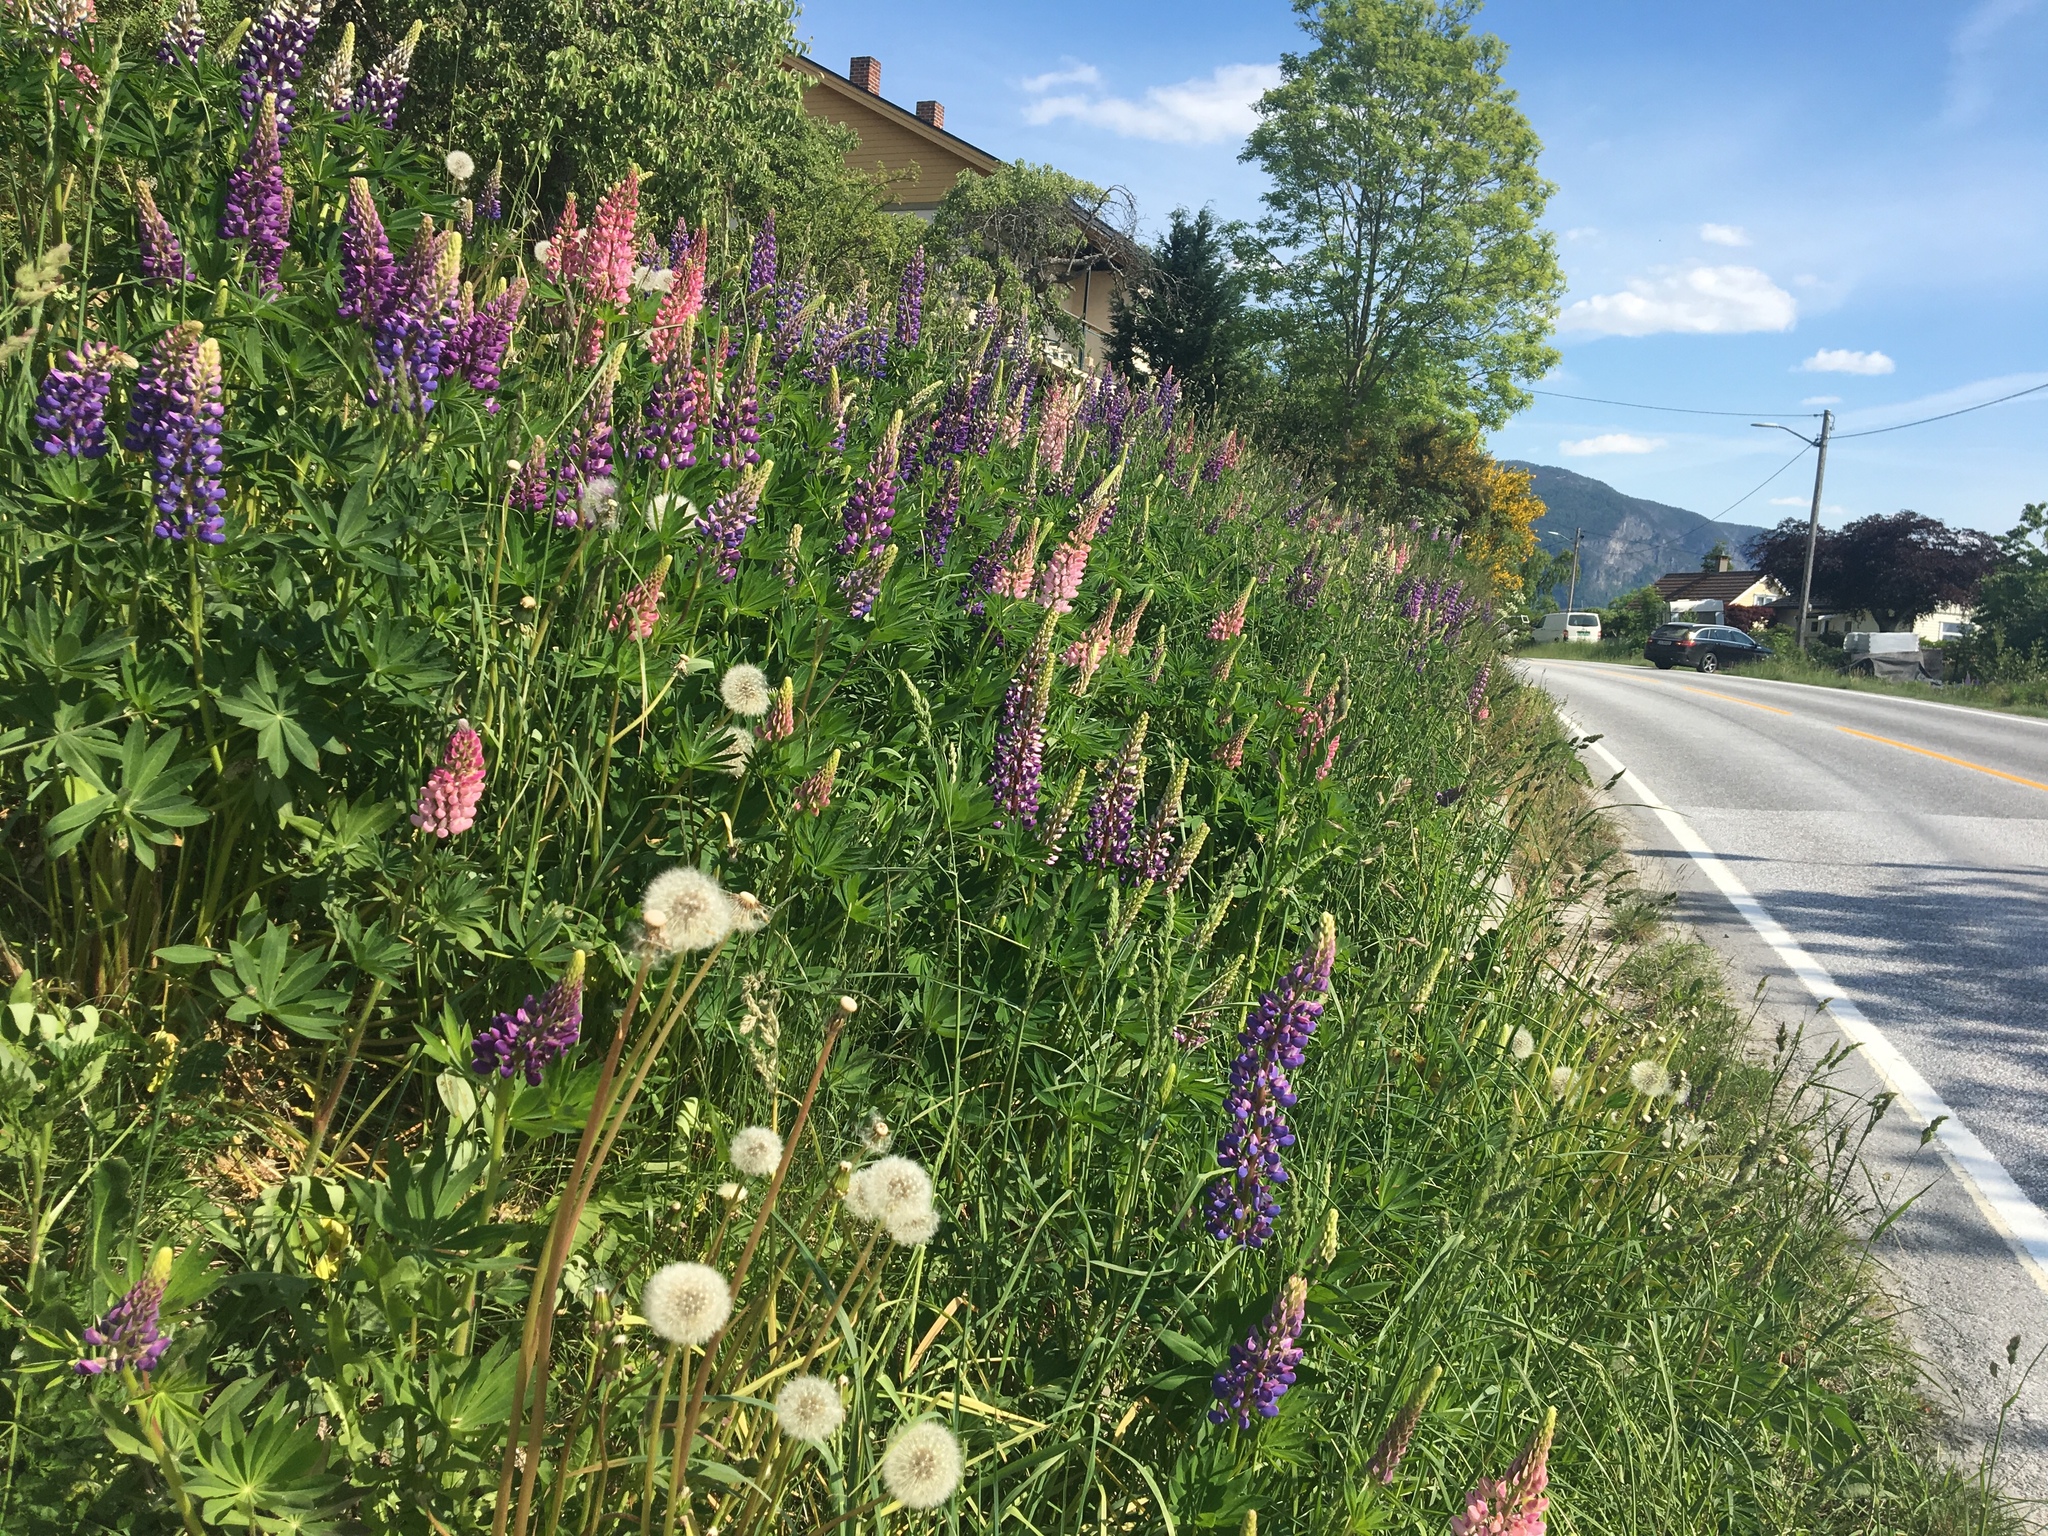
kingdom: Plantae
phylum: Tracheophyta
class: Magnoliopsida
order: Fabales
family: Fabaceae
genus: Lupinus
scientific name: Lupinus polyphyllus
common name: Garden lupin
